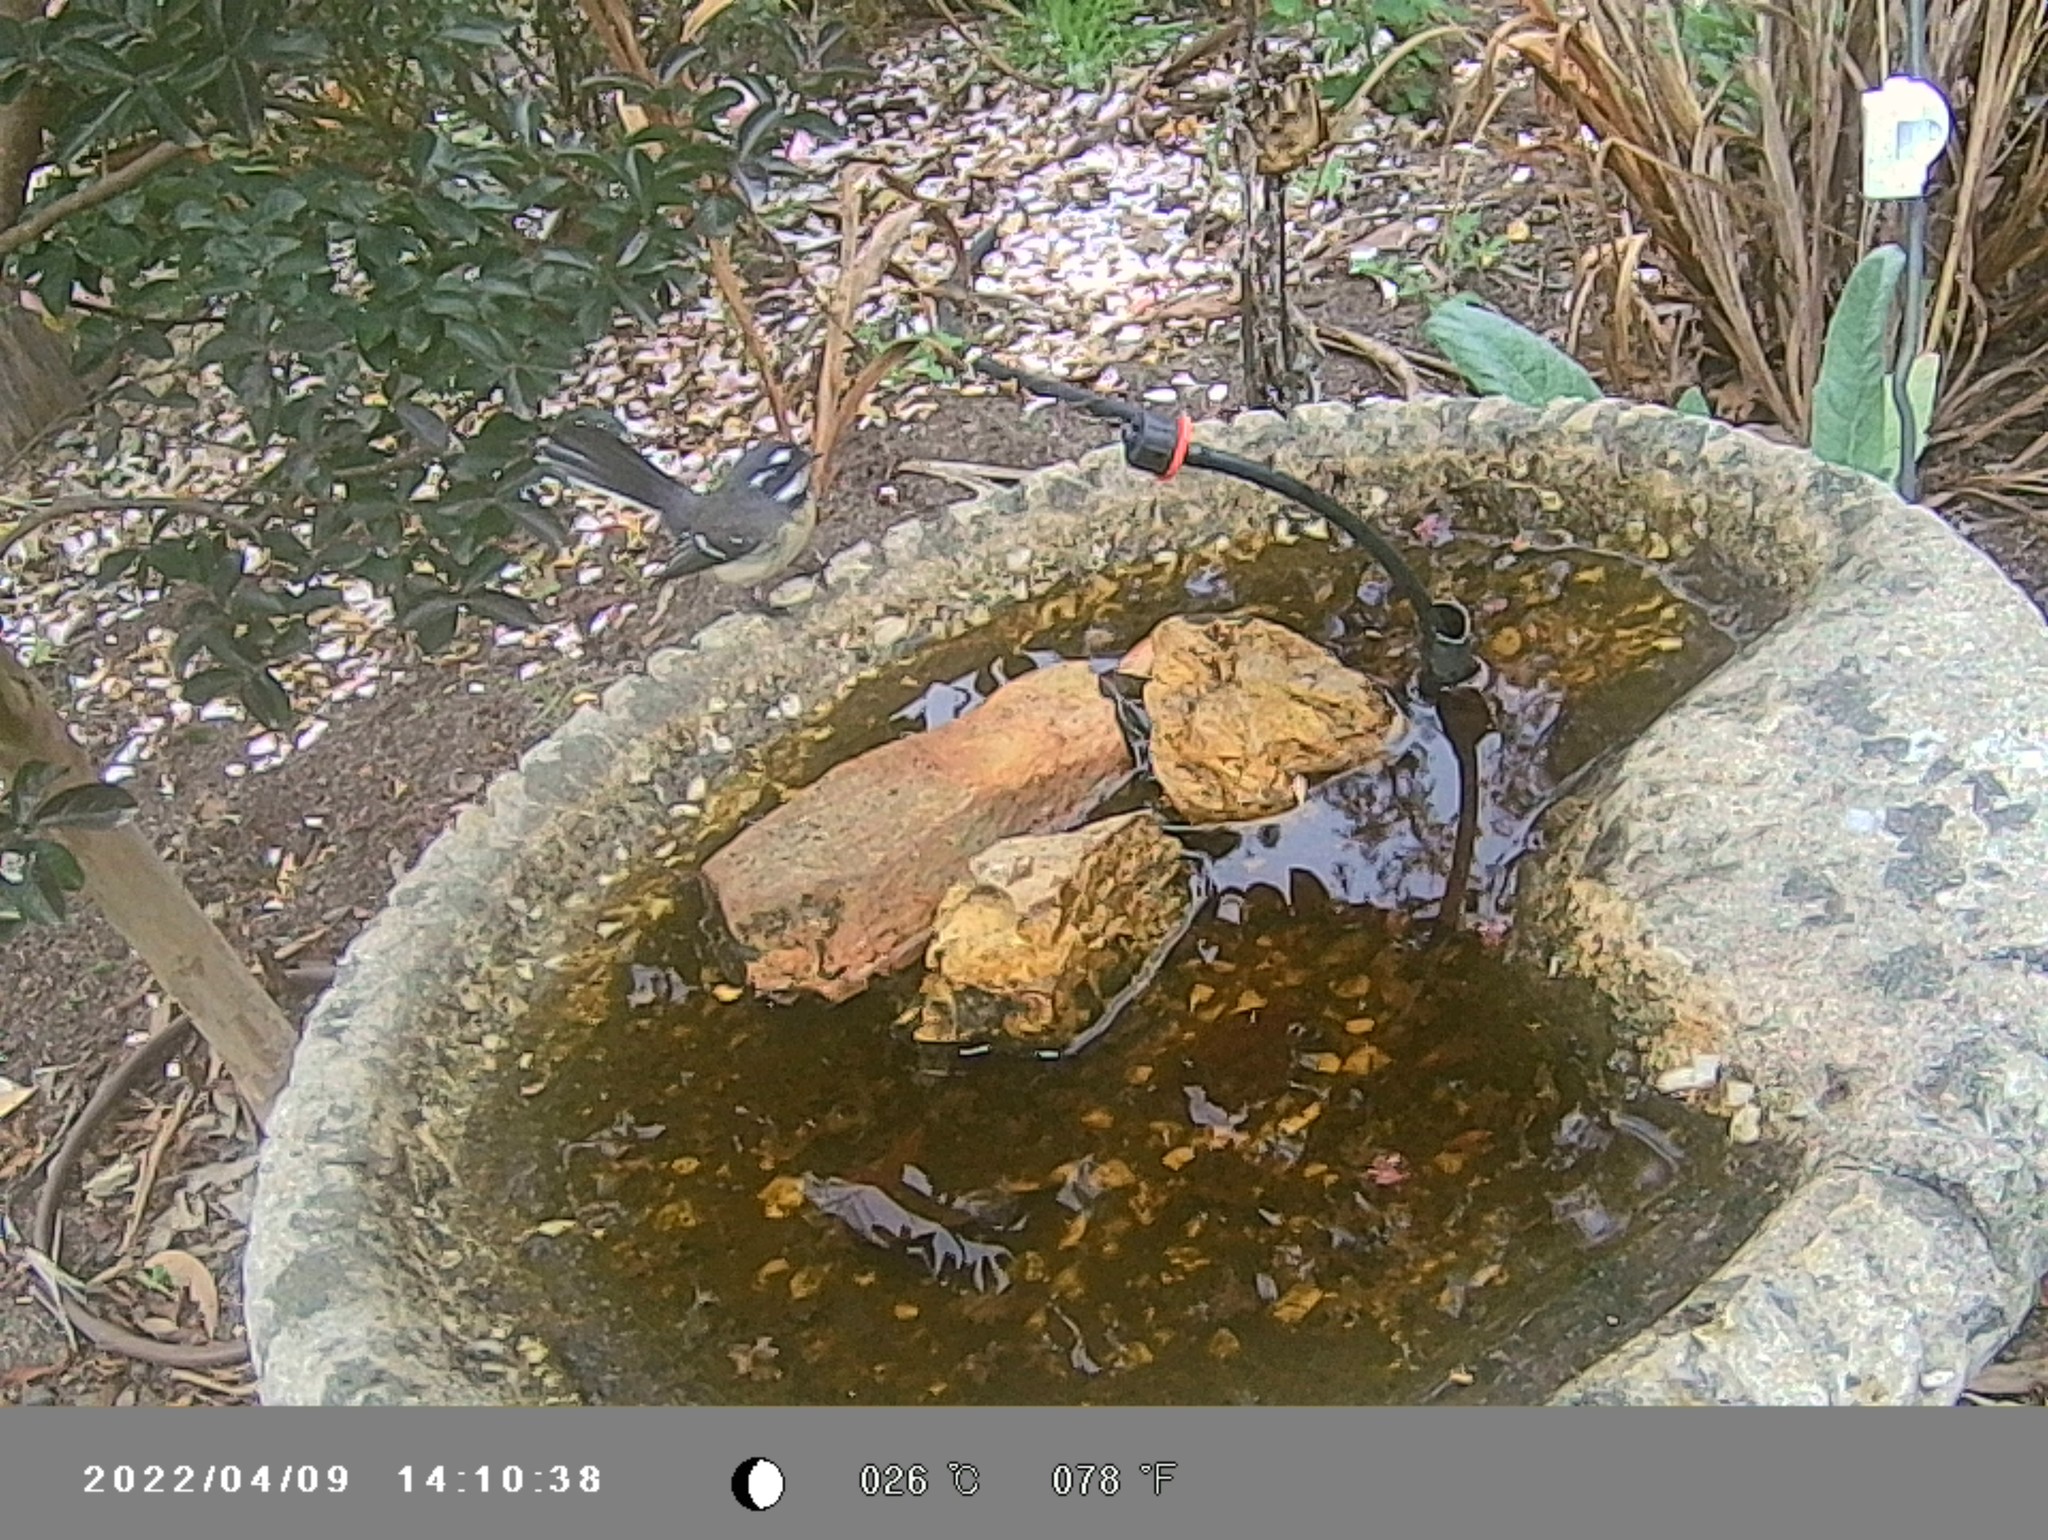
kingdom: Animalia
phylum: Chordata
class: Aves
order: Passeriformes
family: Rhipiduridae
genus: Rhipidura
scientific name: Rhipidura albiscapa
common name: Grey fantail
